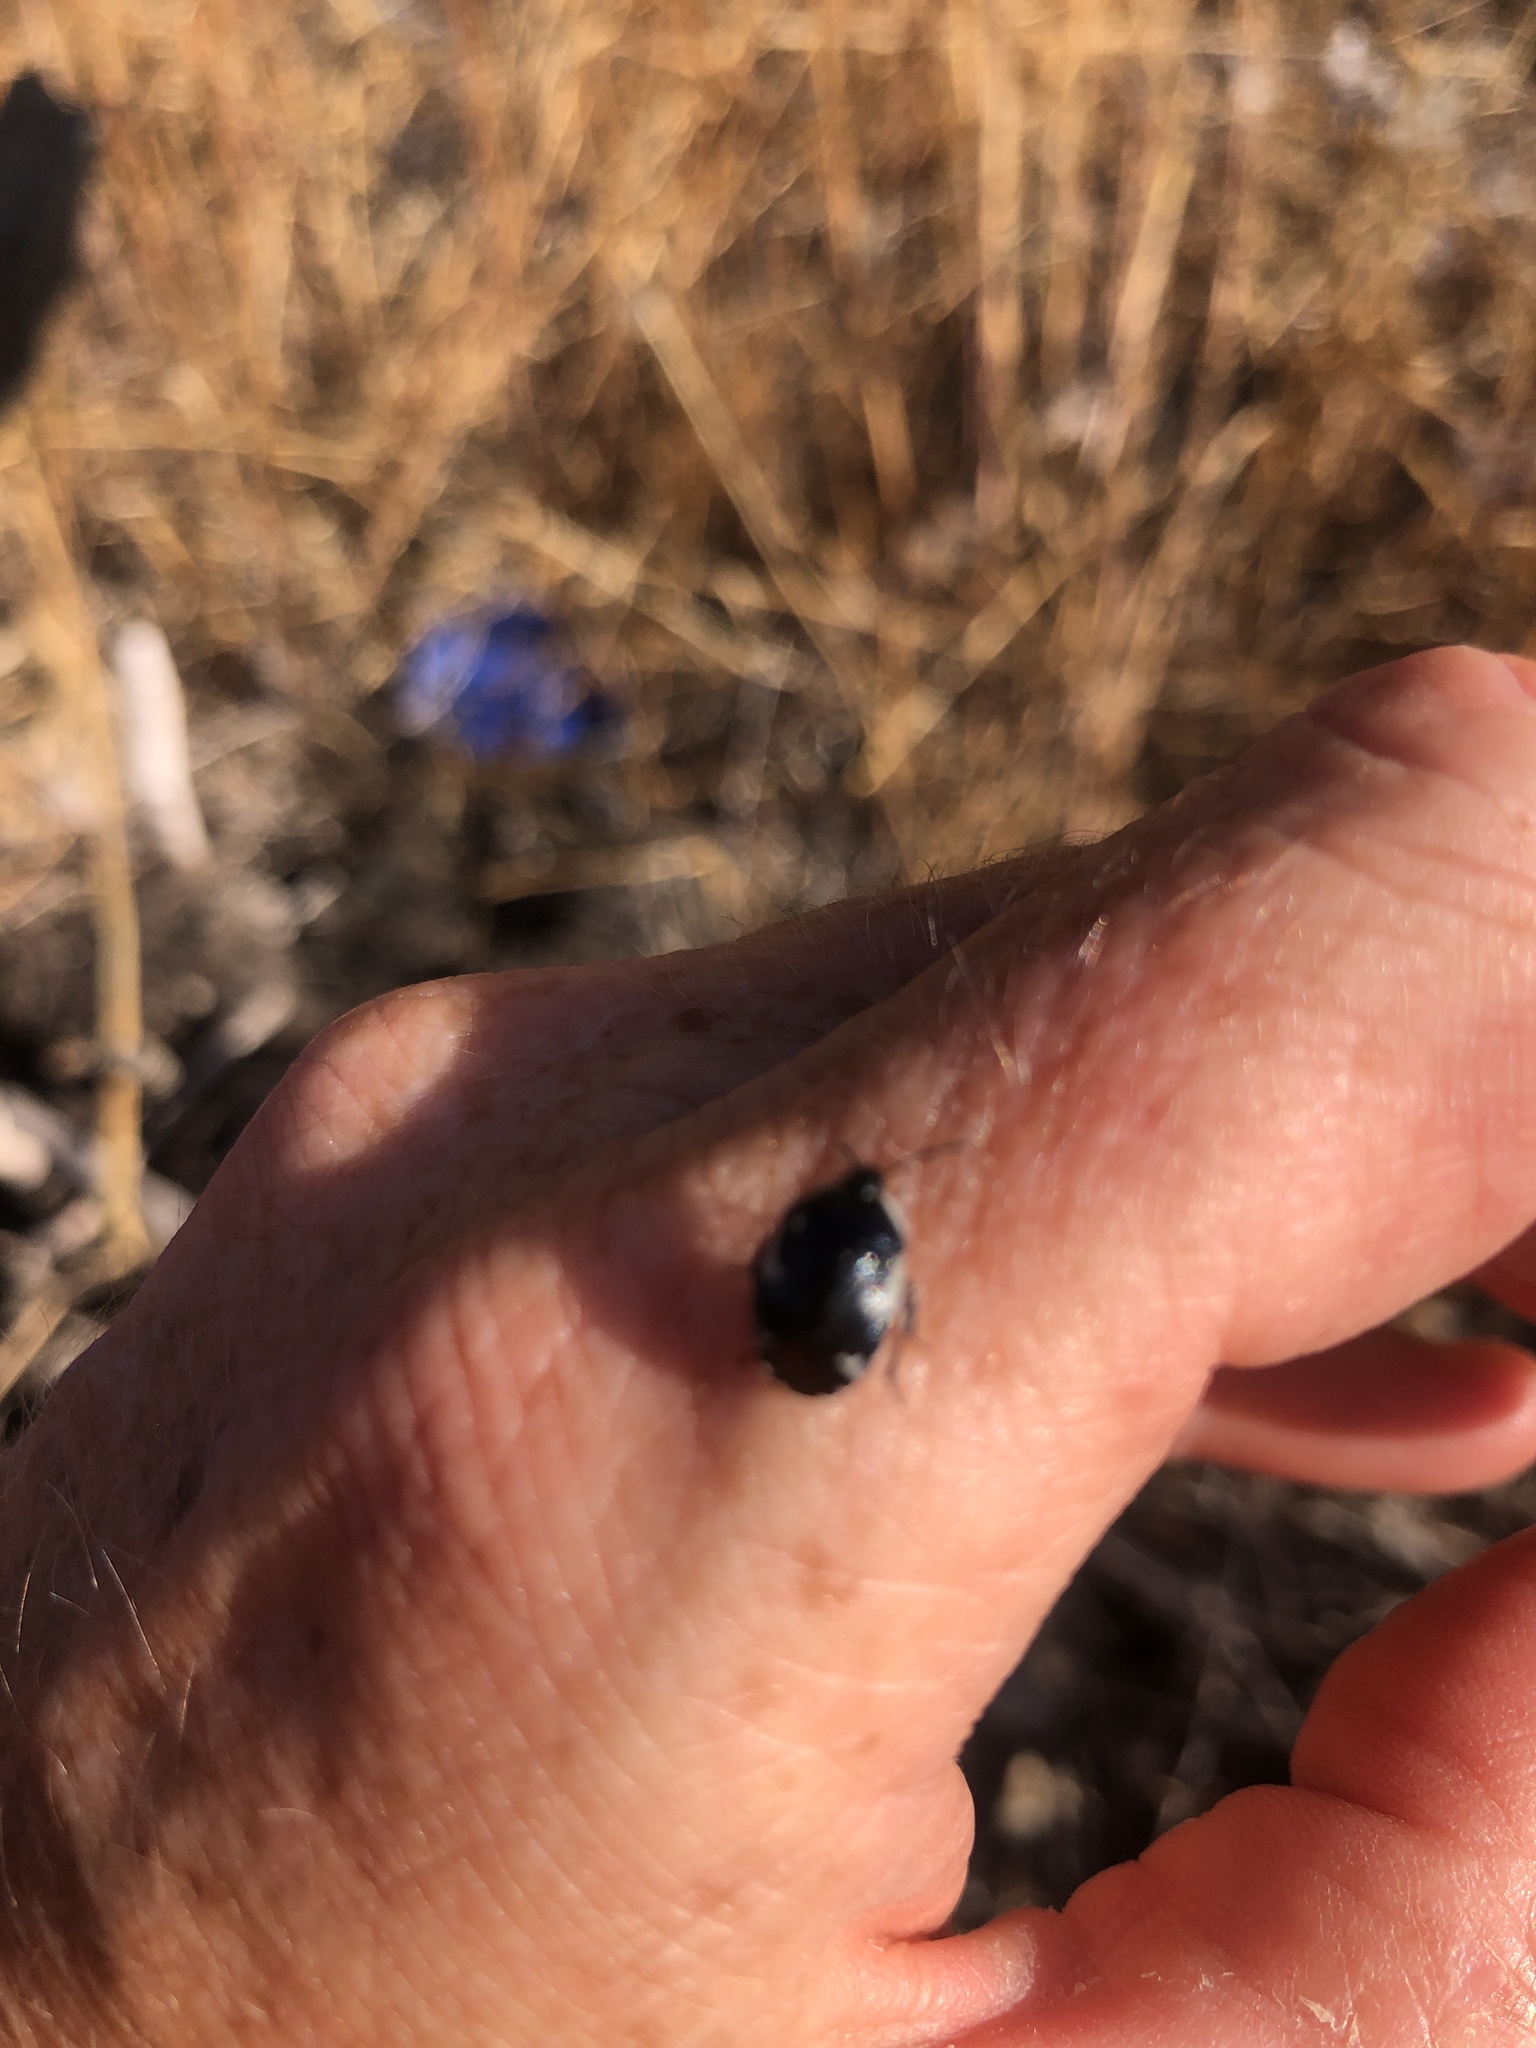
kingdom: Animalia
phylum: Arthropoda
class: Insecta
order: Hemiptera
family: Cydnidae
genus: Tritomegas
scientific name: Tritomegas sexmaculatus
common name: Rambur's pied shieldbug
